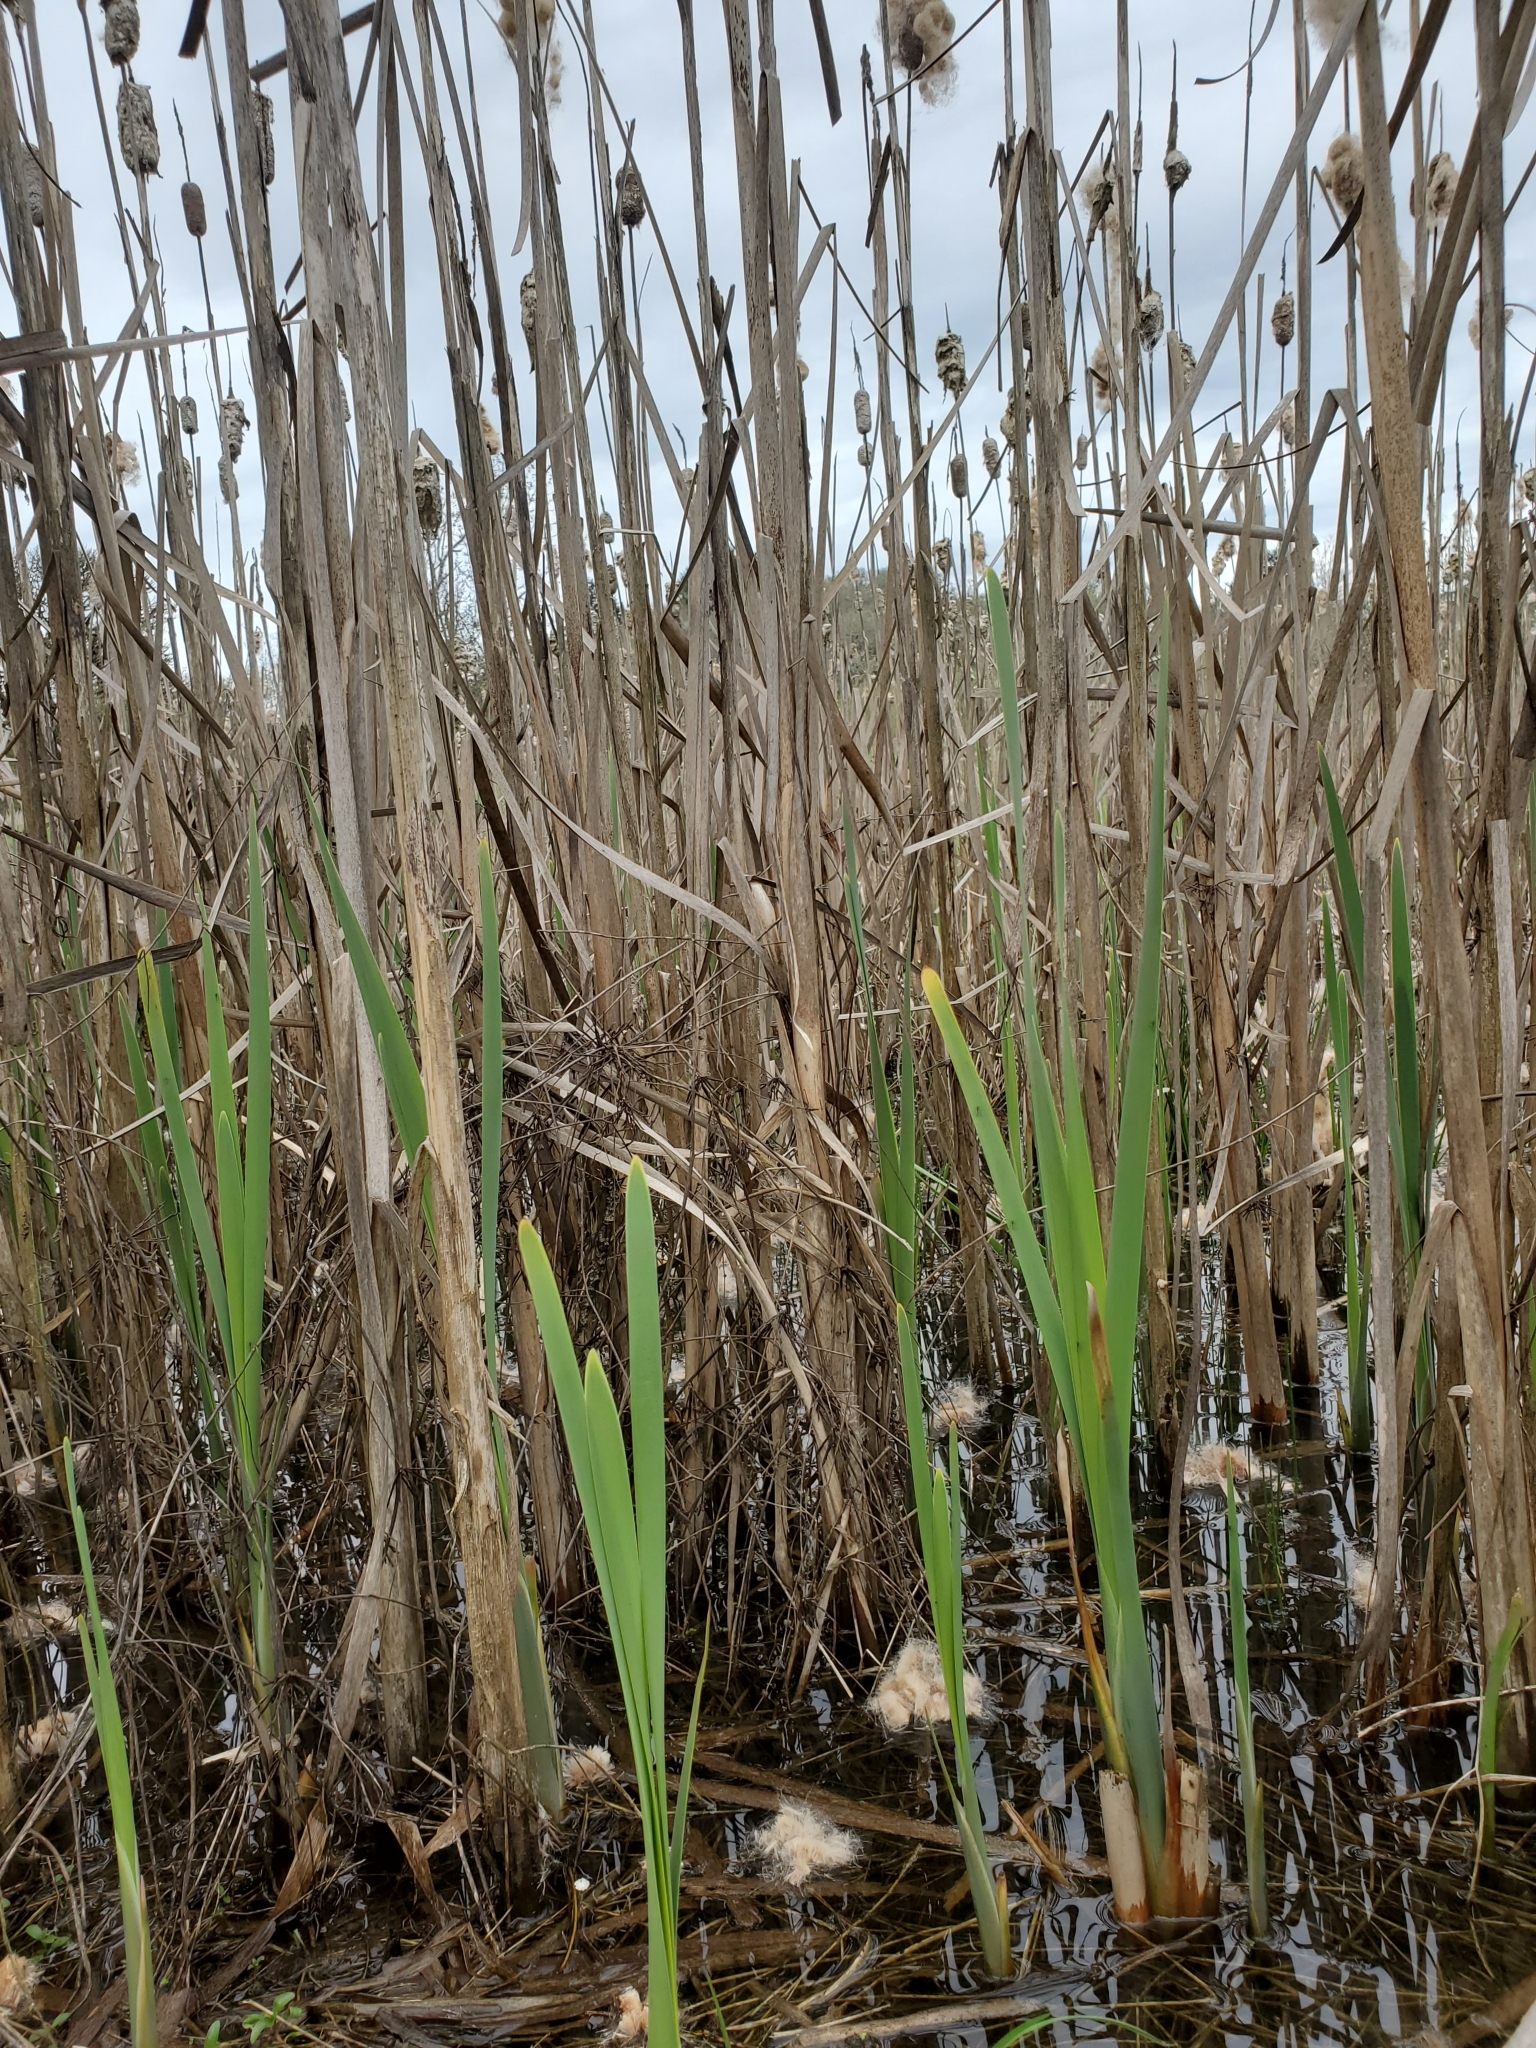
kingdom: Plantae
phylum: Tracheophyta
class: Liliopsida
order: Poales
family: Typhaceae
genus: Typha
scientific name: Typha latifolia
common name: Broadleaf cattail
